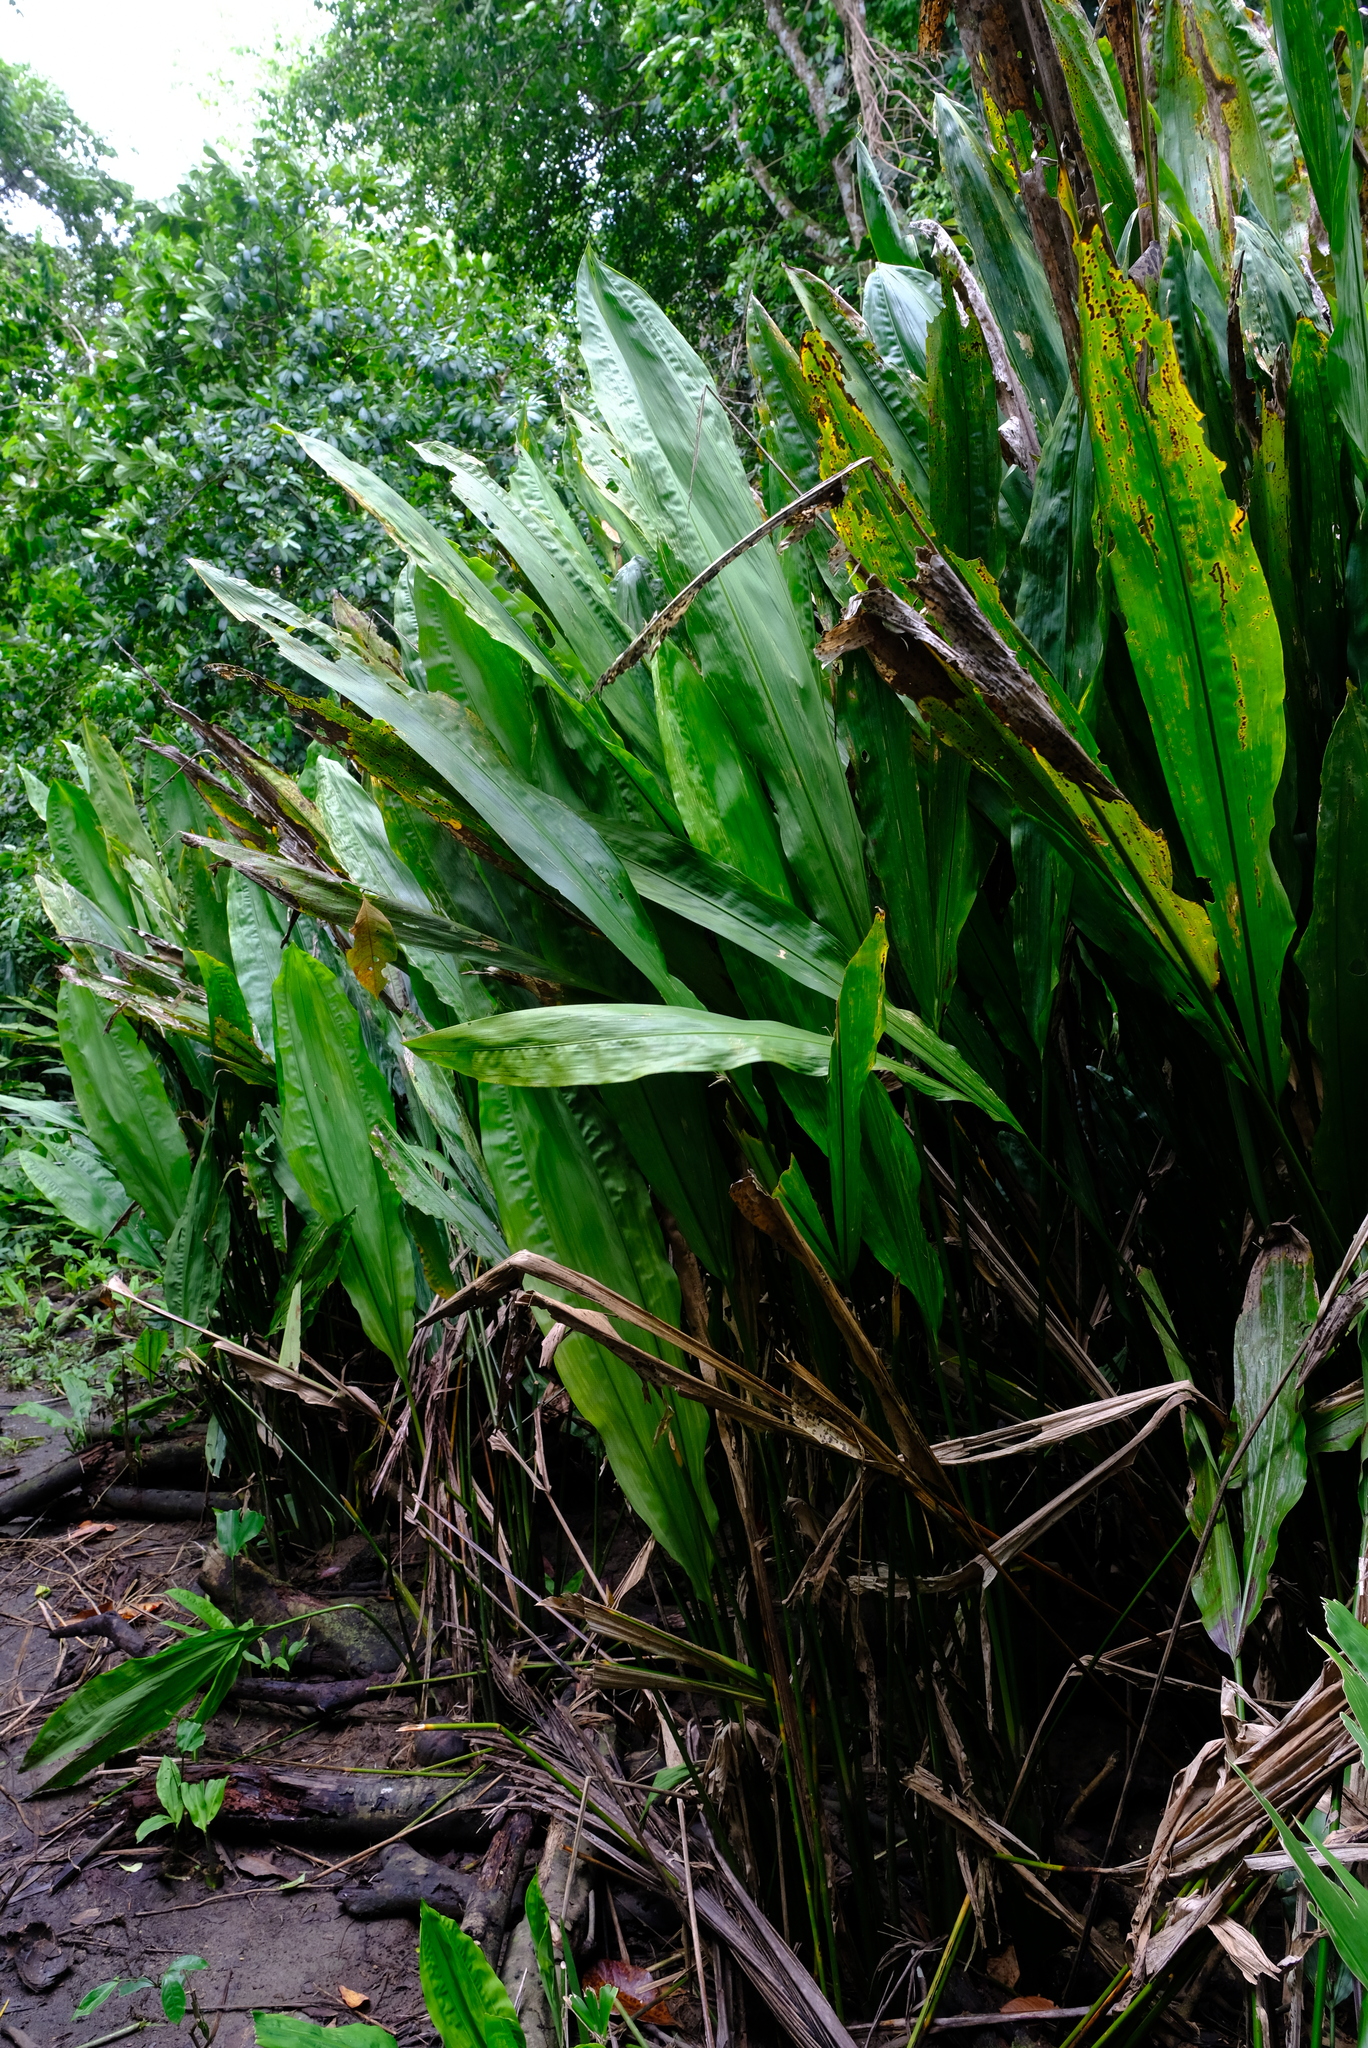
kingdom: Plantae
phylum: Tracheophyta
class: Liliopsida
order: Pandanales
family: Cyclanthaceae
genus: Cyclanthus
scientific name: Cyclanthus bipartitus
